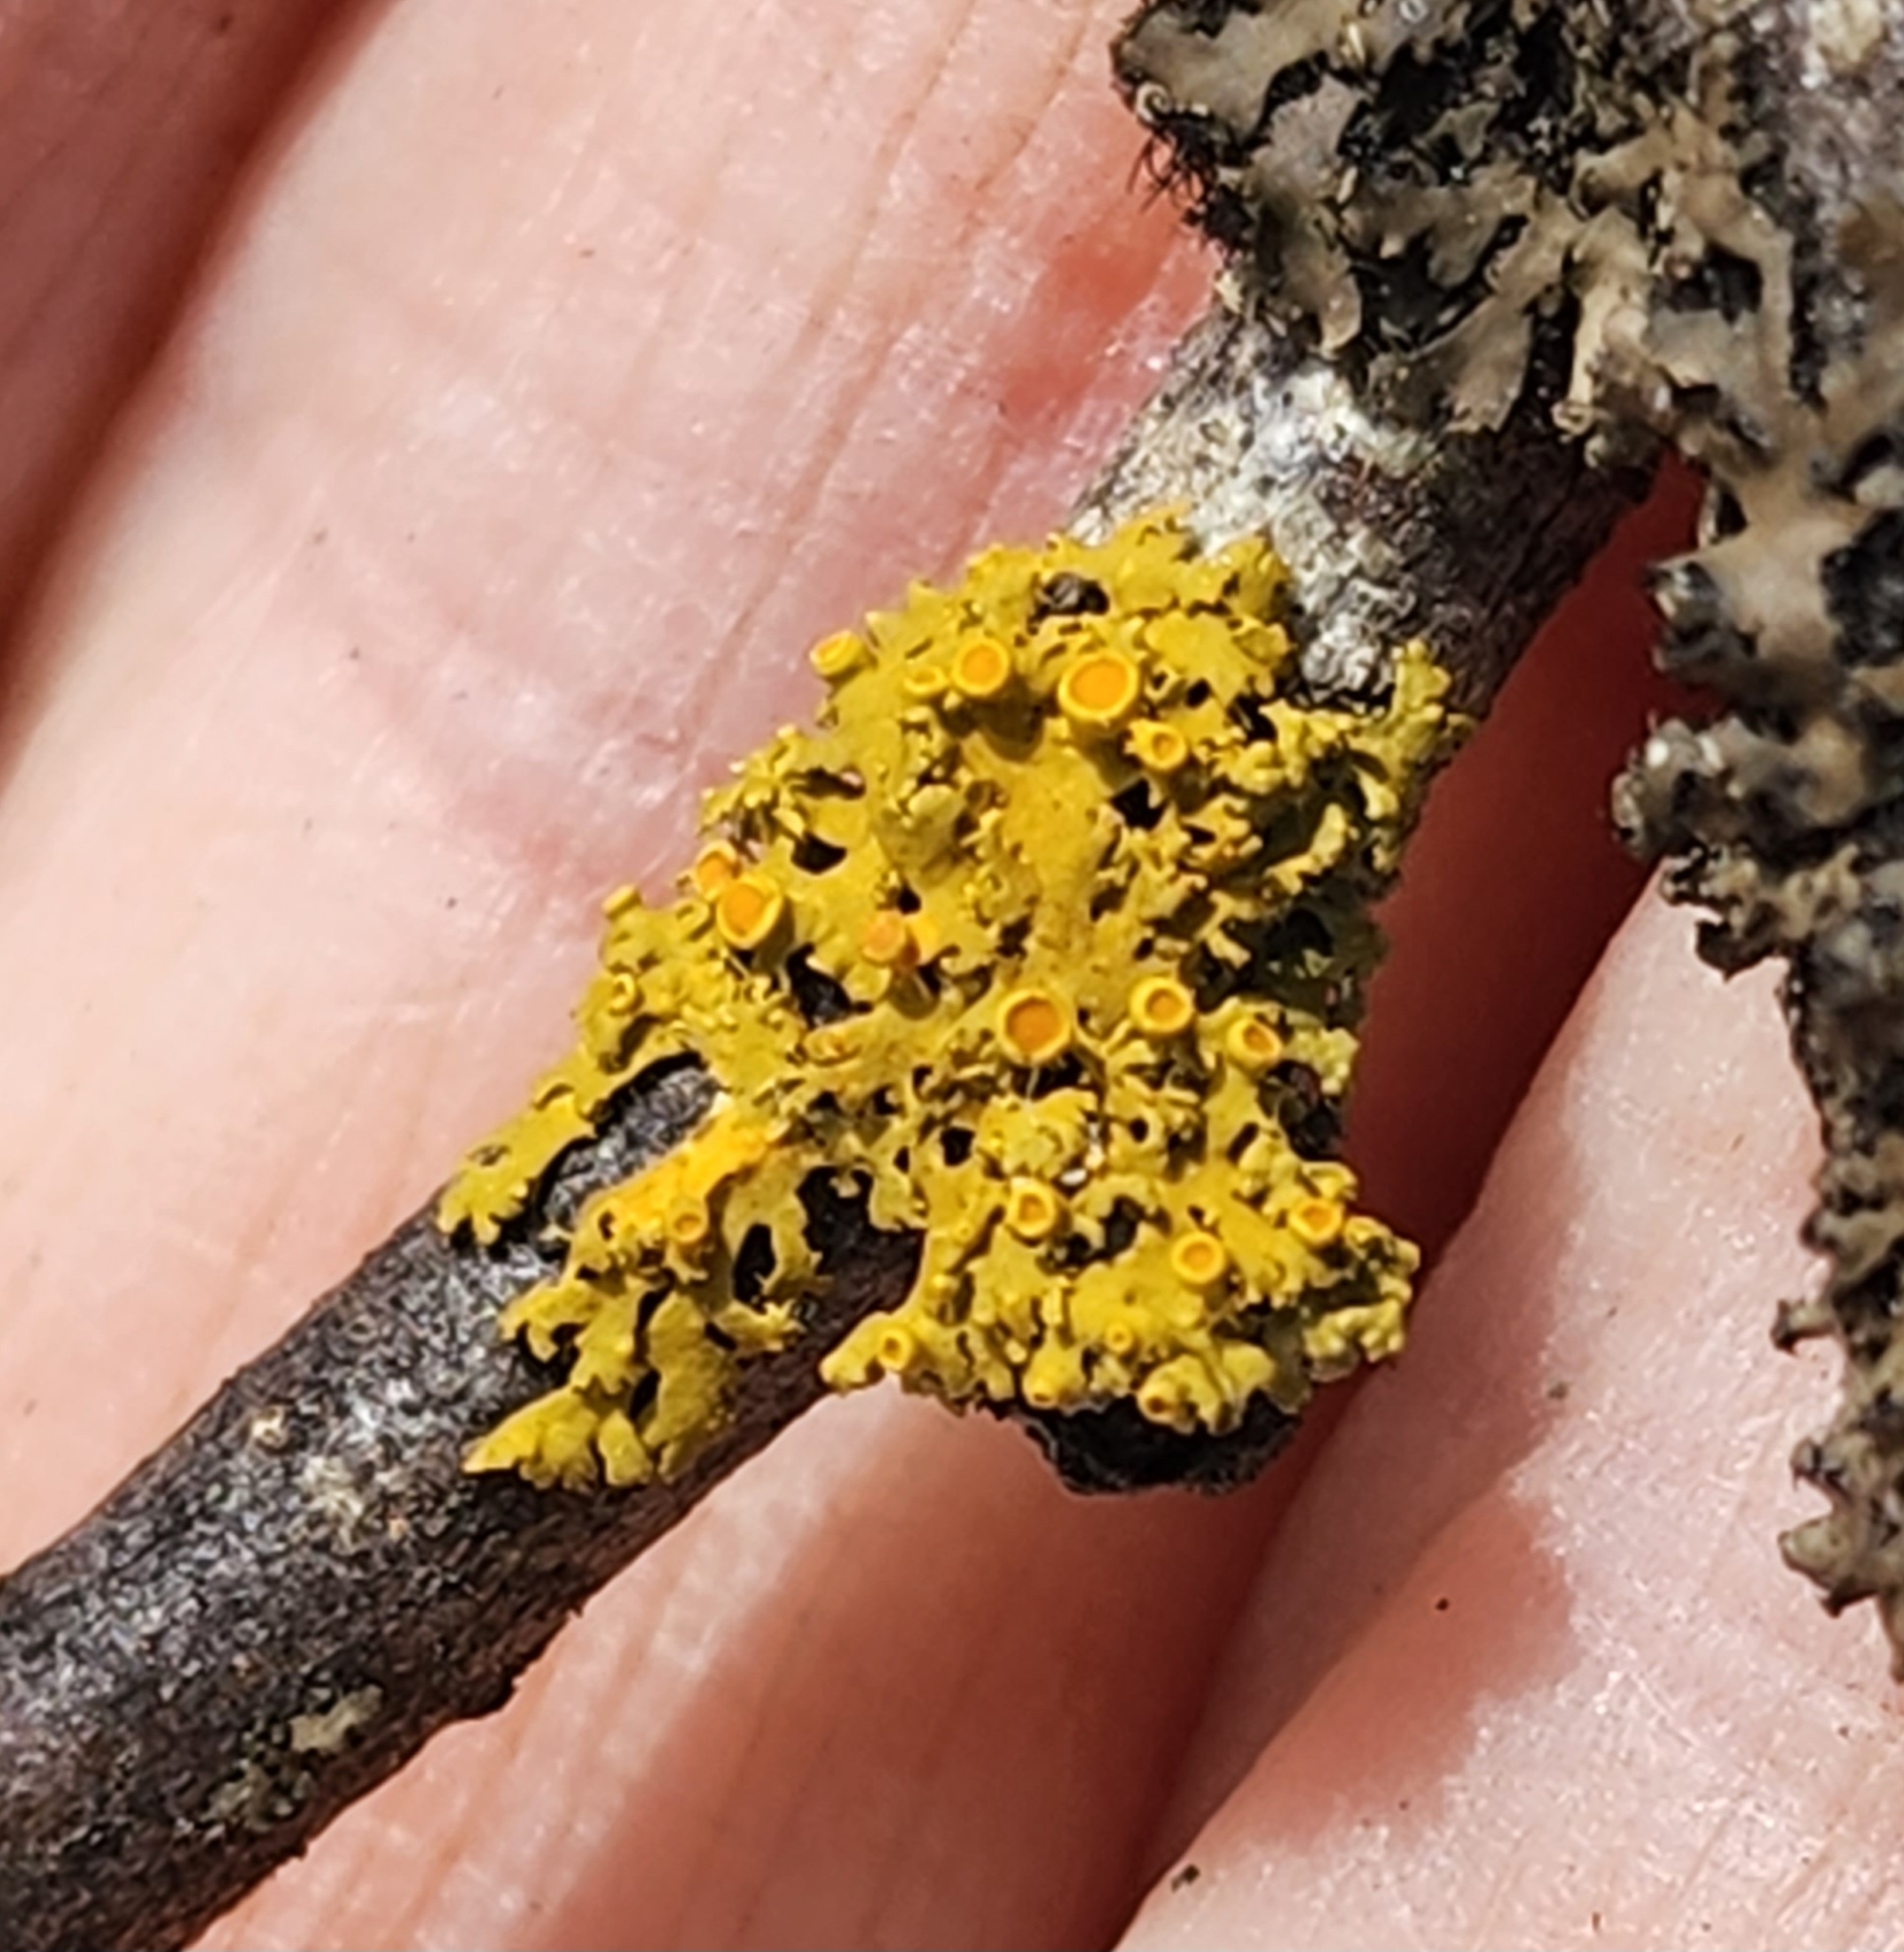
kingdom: Fungi
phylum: Ascomycota
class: Lecanoromycetes
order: Teloschistales
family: Teloschistaceae
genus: Gallowayella
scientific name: Gallowayella hasseana
